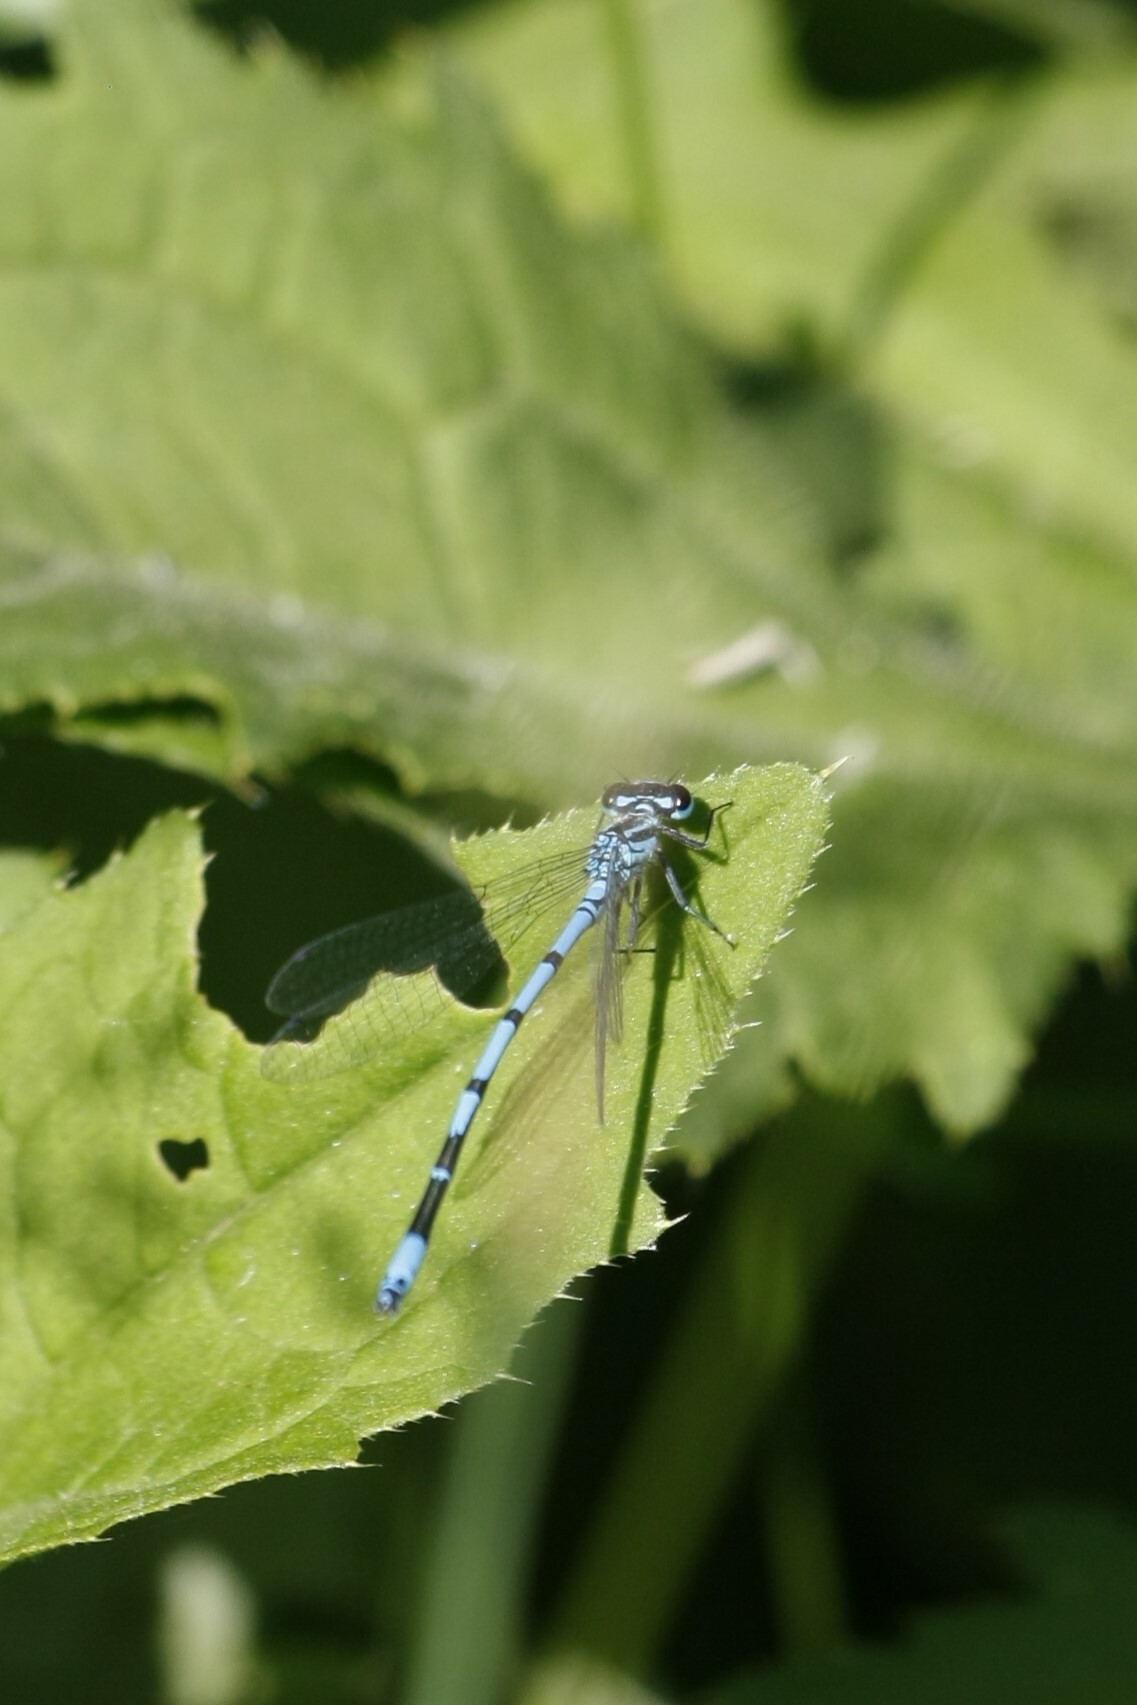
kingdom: Animalia
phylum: Arthropoda
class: Insecta
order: Odonata
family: Coenagrionidae
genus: Coenagrion
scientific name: Coenagrion puella
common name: Azure damselfly
